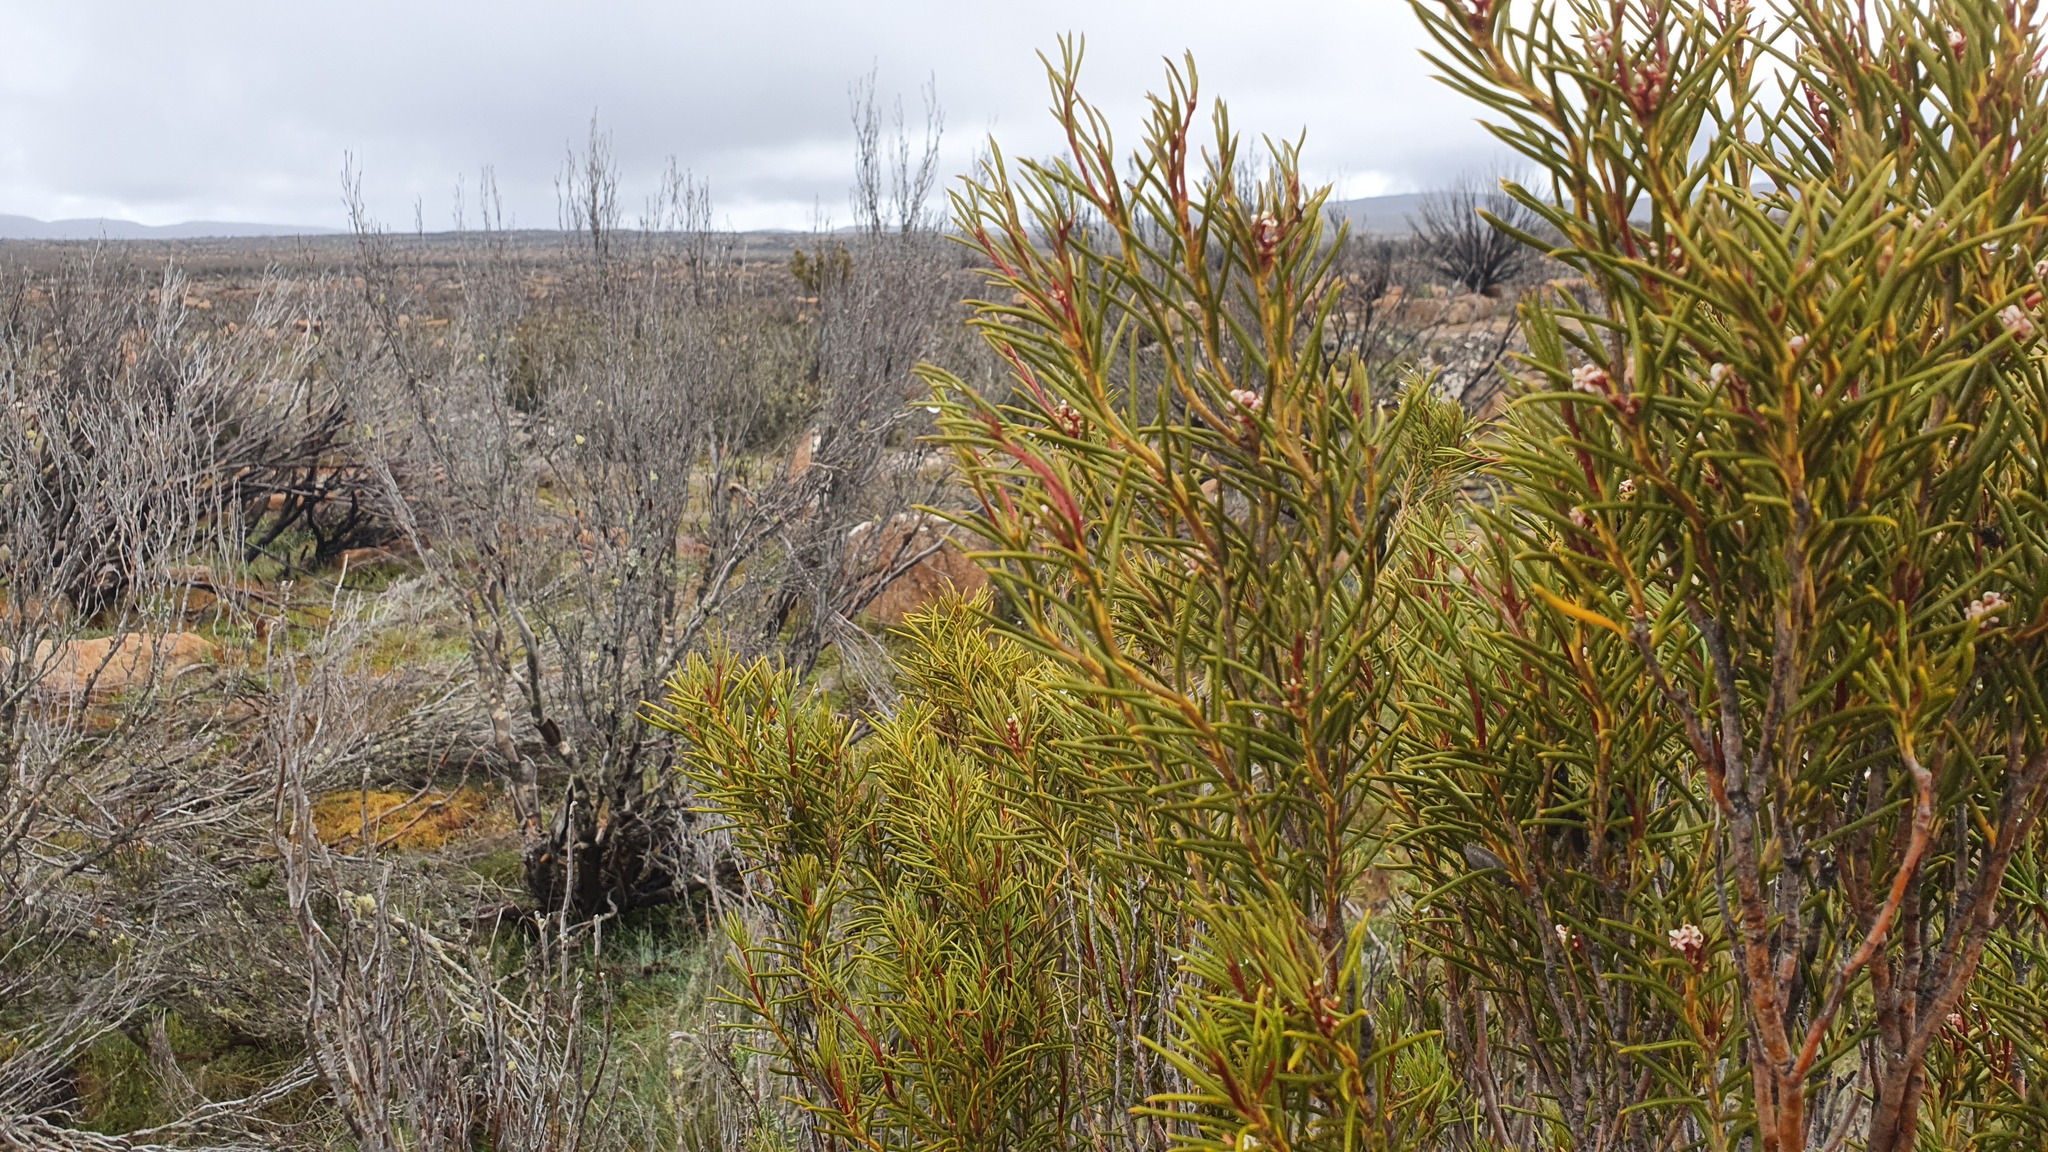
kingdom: Plantae
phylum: Tracheophyta
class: Magnoliopsida
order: Proteales
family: Proteaceae
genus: Orites
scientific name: Orites acicularis
